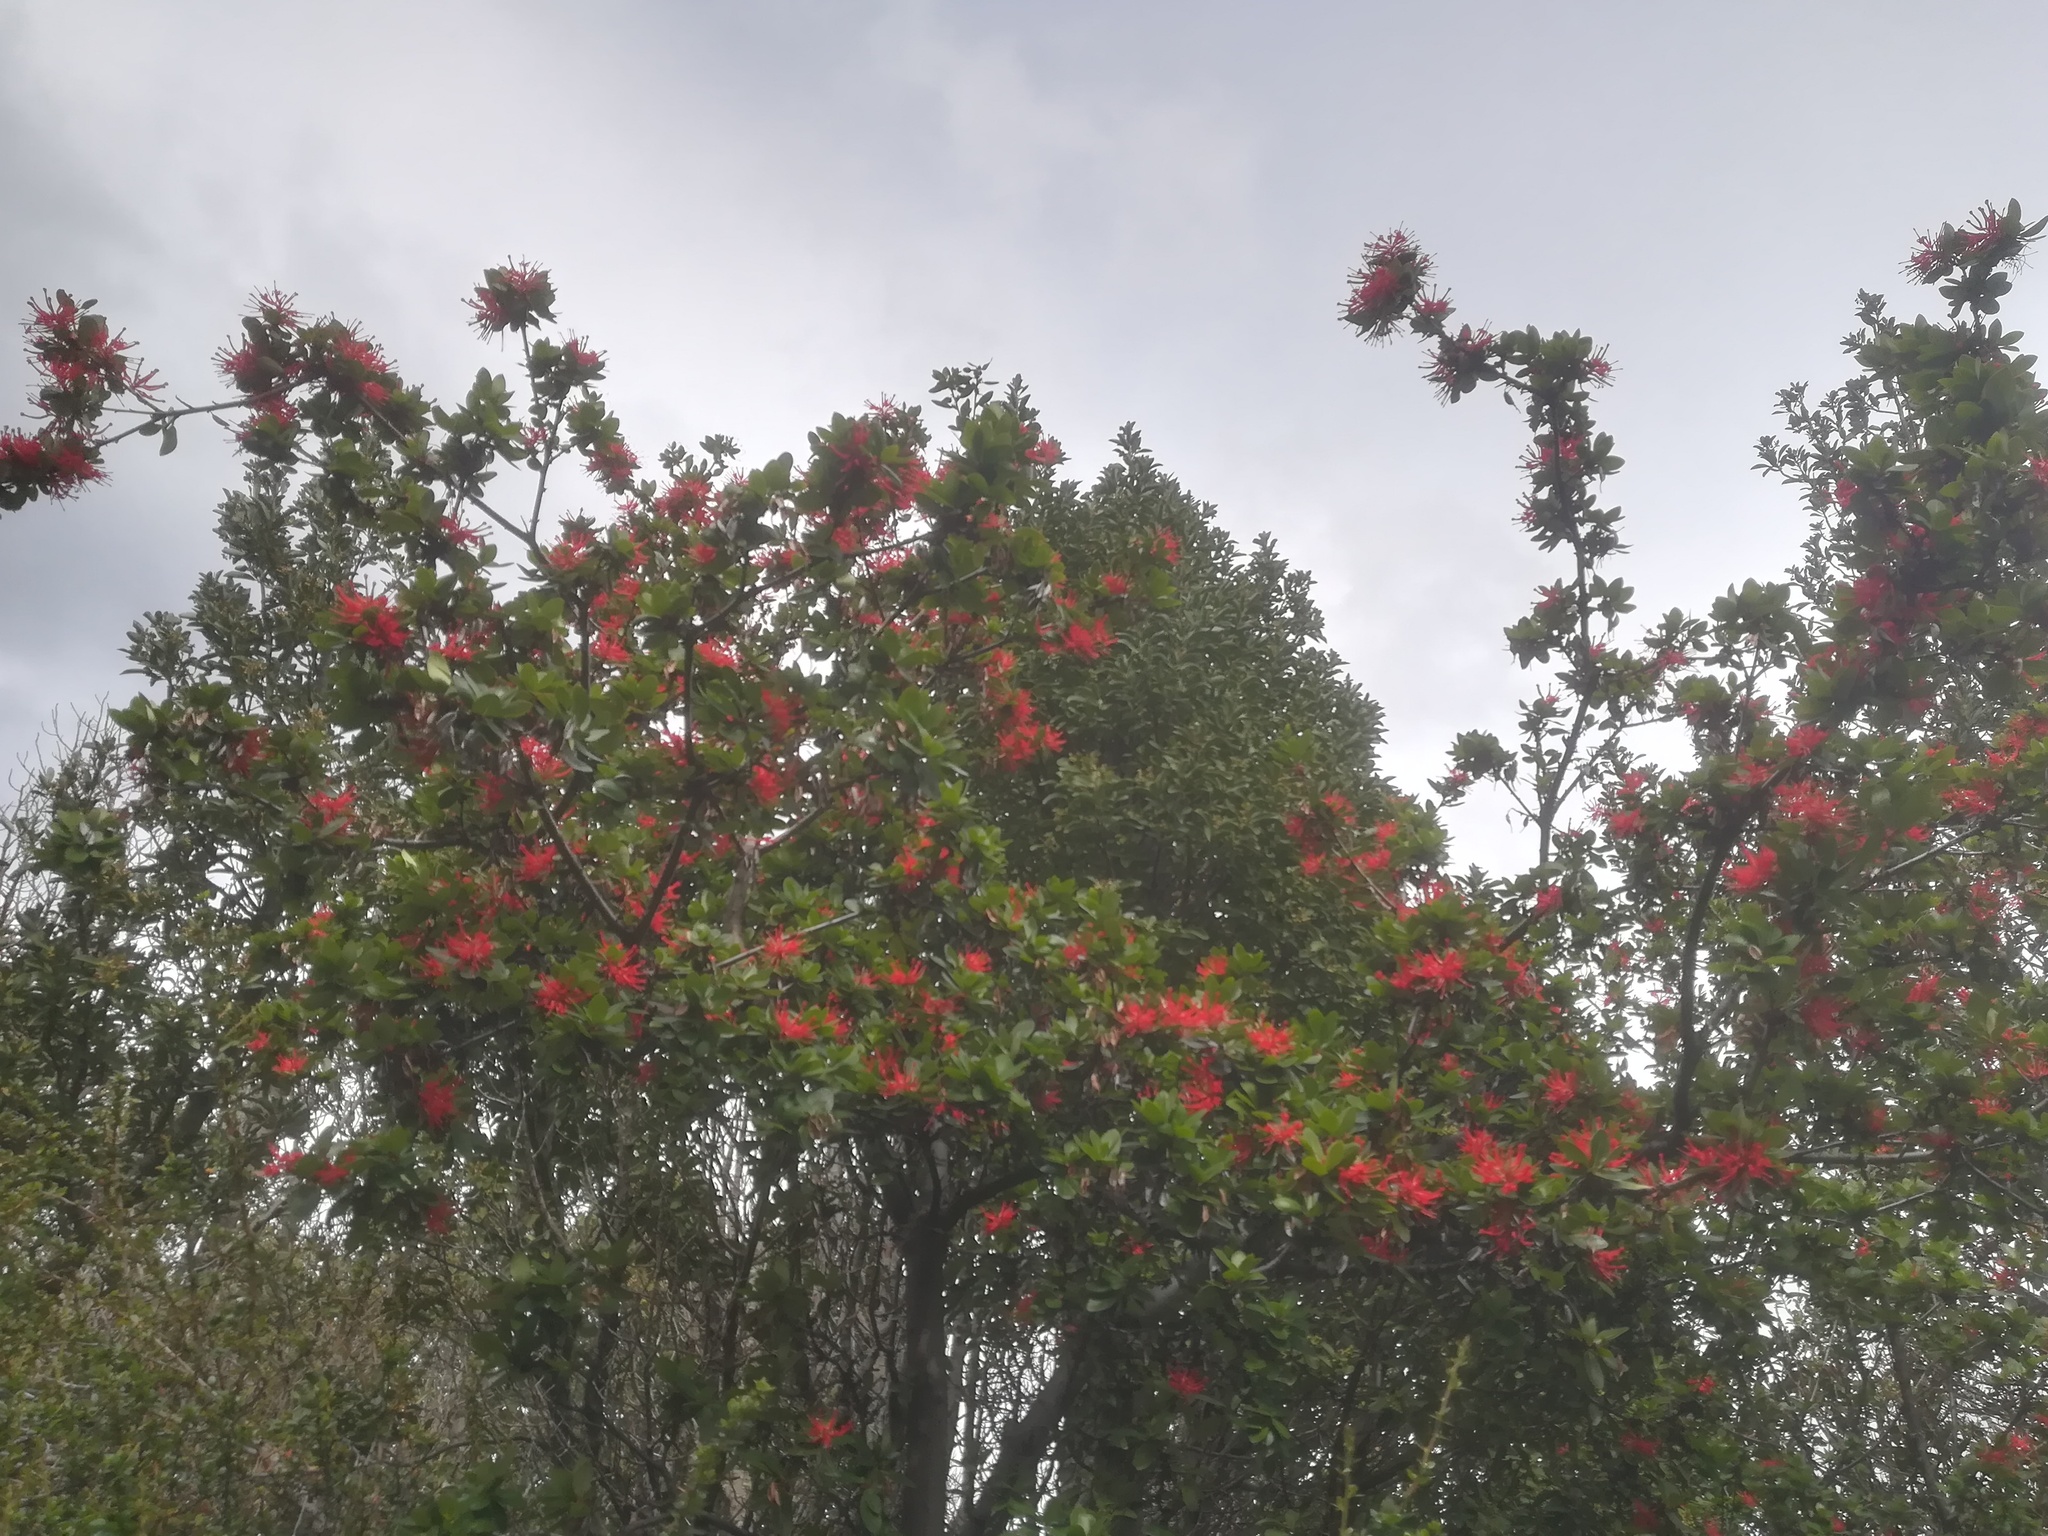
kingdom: Plantae
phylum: Tracheophyta
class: Magnoliopsida
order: Proteales
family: Proteaceae
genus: Embothrium
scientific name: Embothrium coccineum
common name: Chilean firebush
